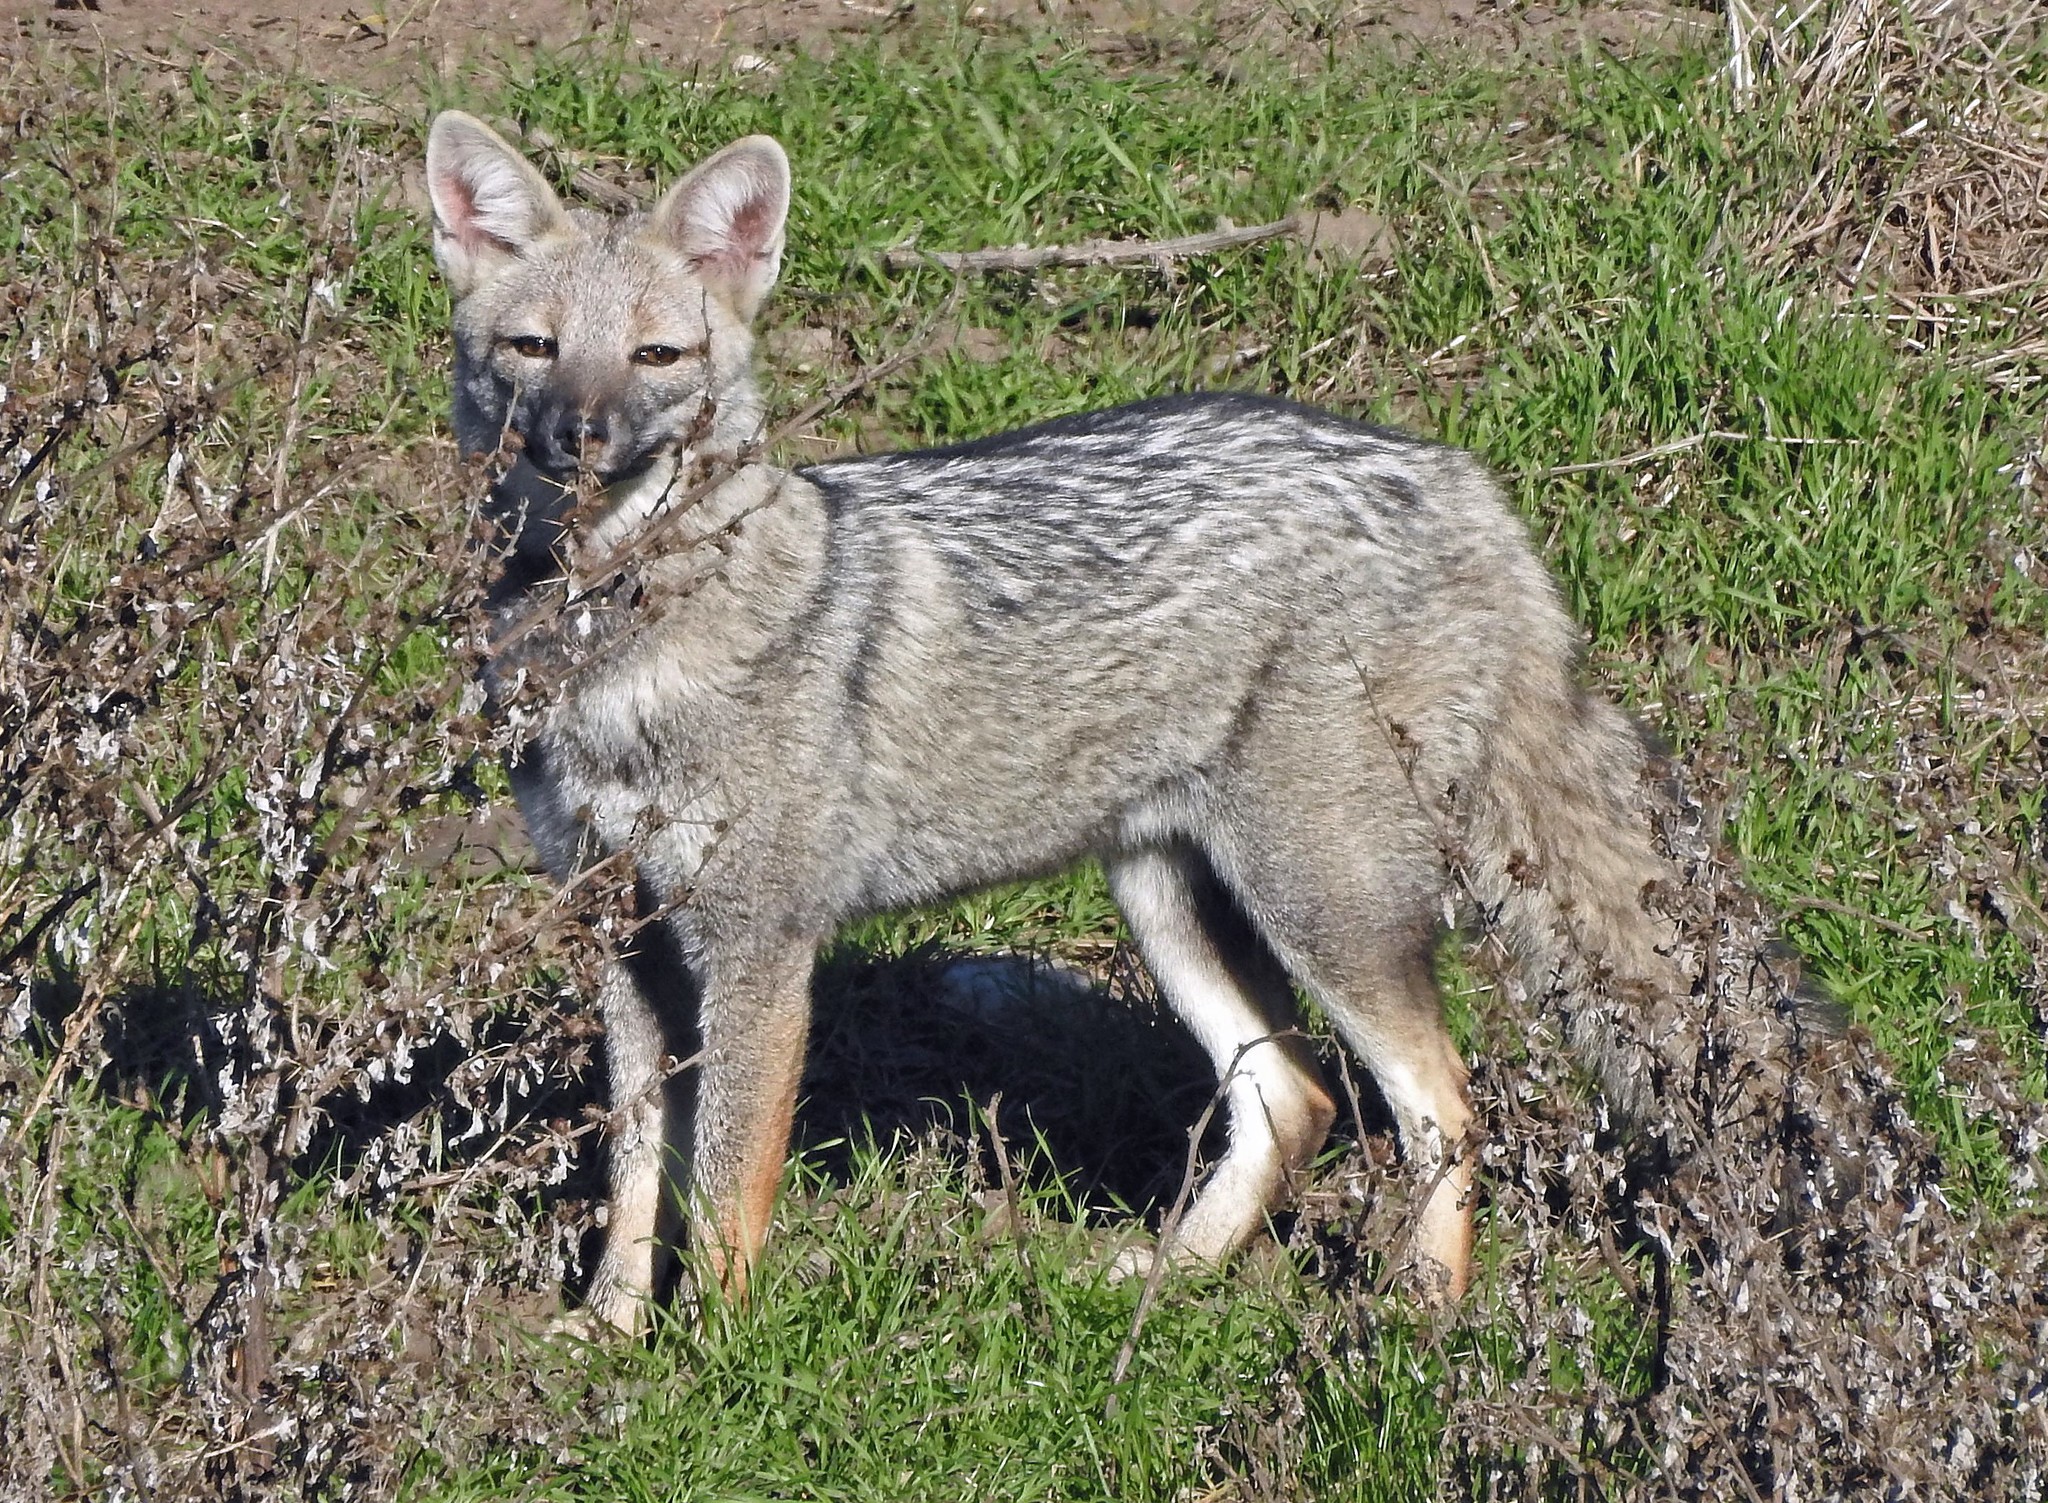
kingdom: Animalia
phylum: Chordata
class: Mammalia
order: Carnivora
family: Canidae
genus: Lycalopex
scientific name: Lycalopex gymnocercus
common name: Pampas fox
